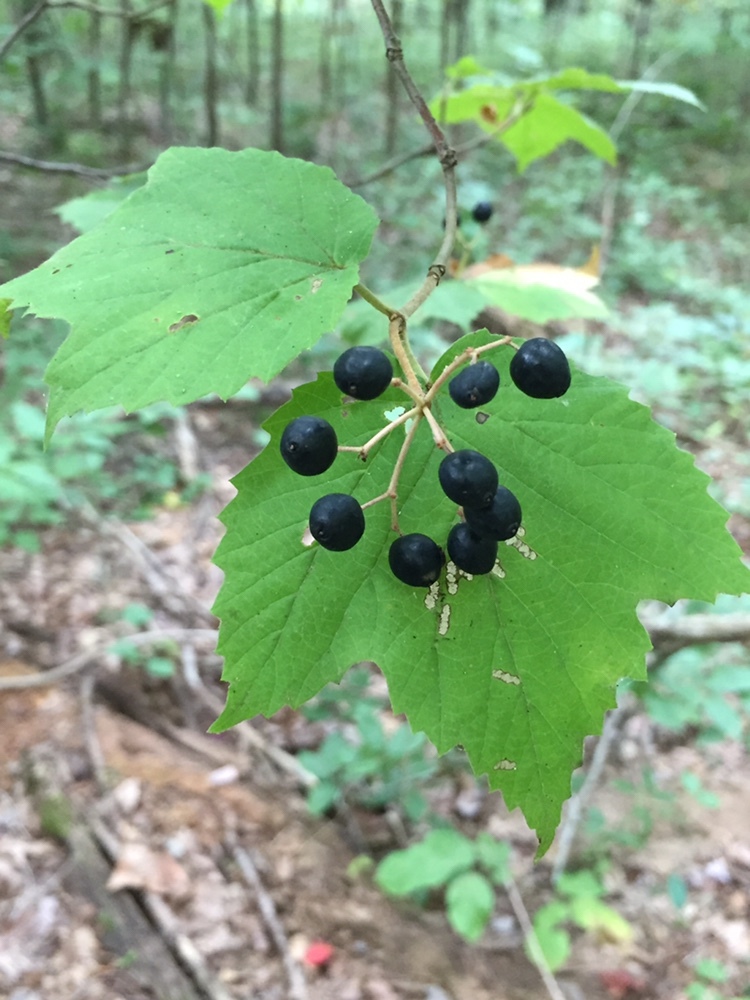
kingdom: Plantae
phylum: Tracheophyta
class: Magnoliopsida
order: Dipsacales
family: Viburnaceae
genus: Viburnum
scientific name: Viburnum acerifolium
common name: Dockmackie
